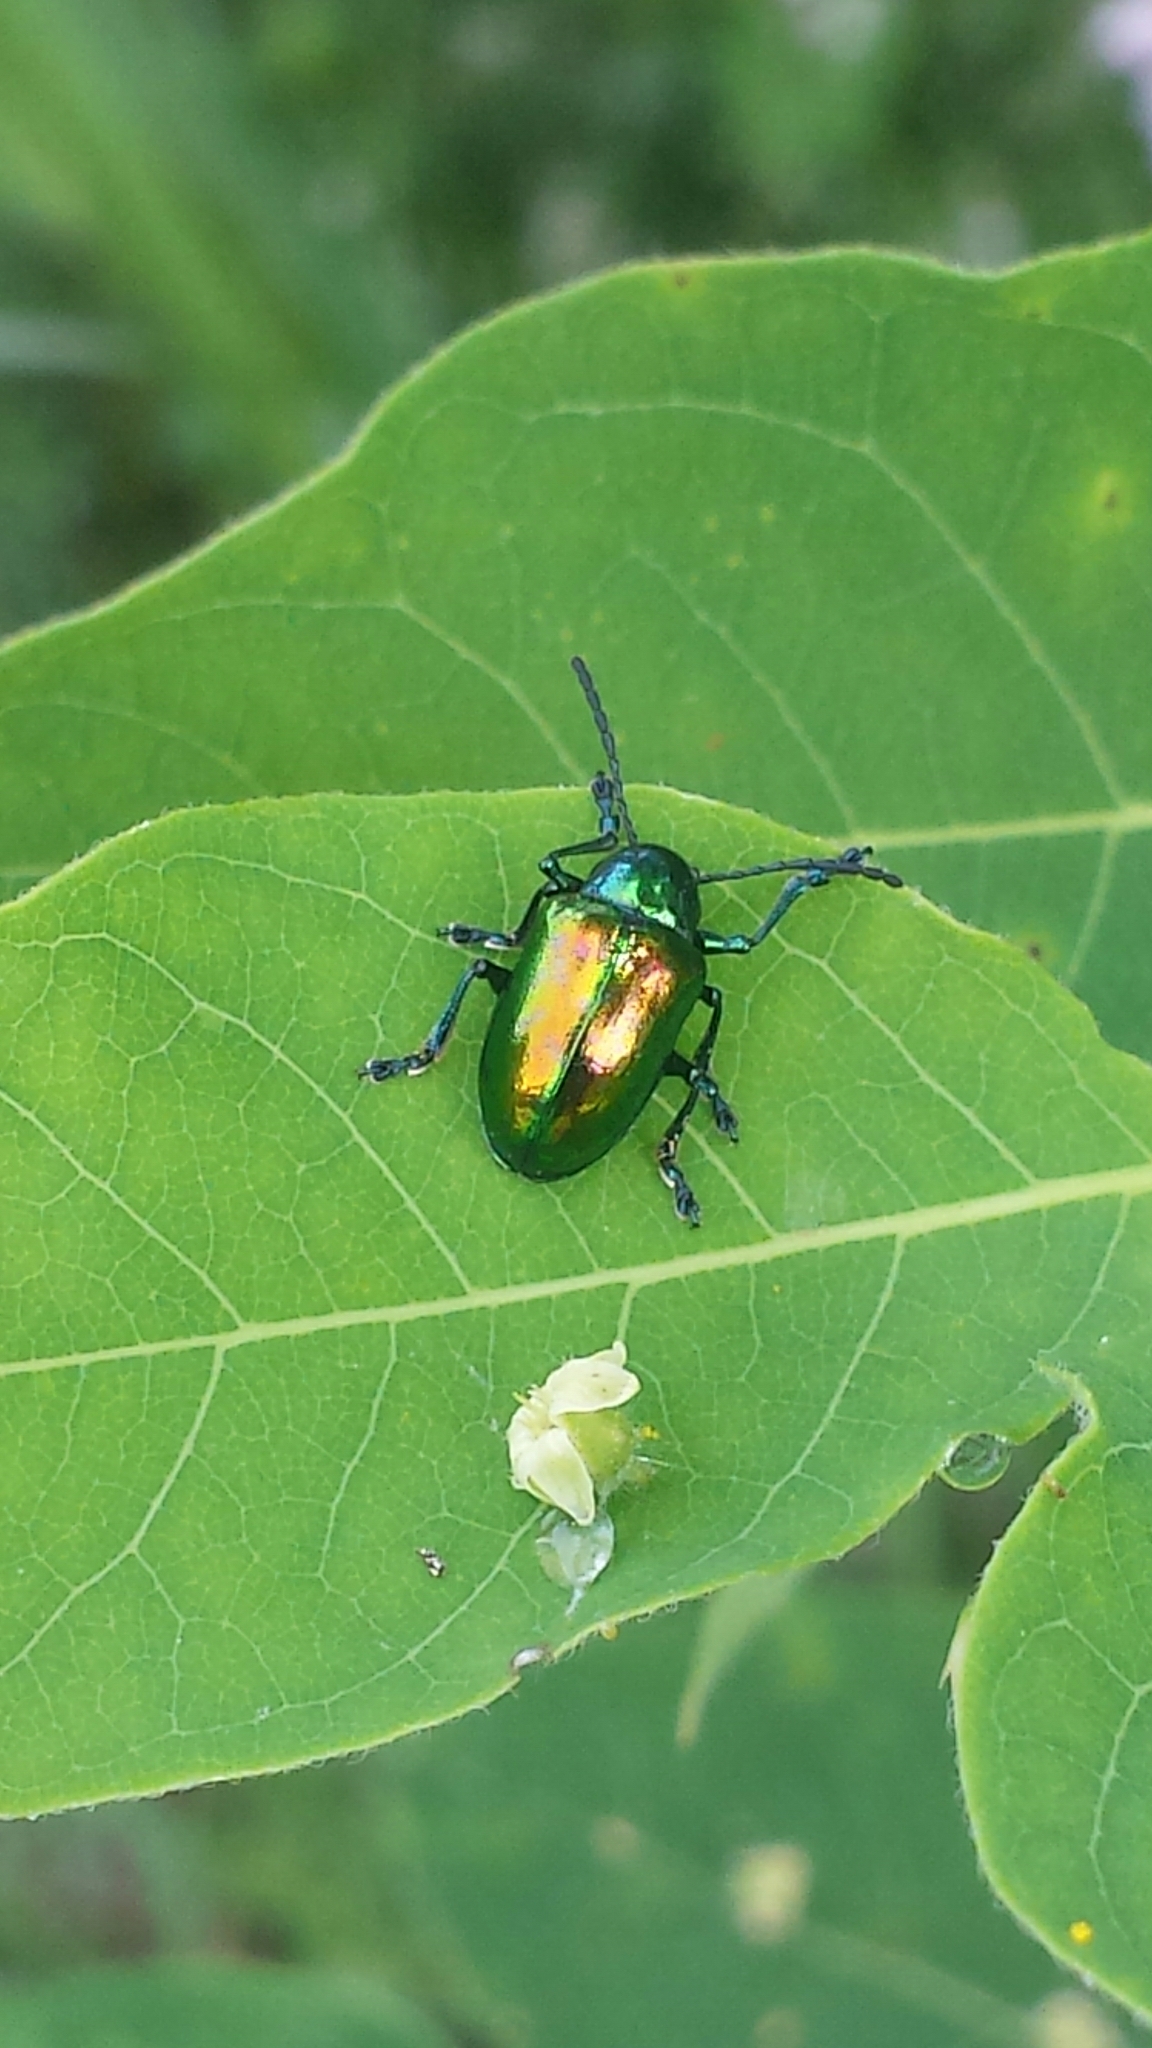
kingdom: Animalia
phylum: Arthropoda
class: Insecta
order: Coleoptera
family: Chrysomelidae
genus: Chrysochus
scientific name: Chrysochus auratus
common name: Dogbane leaf beetle
